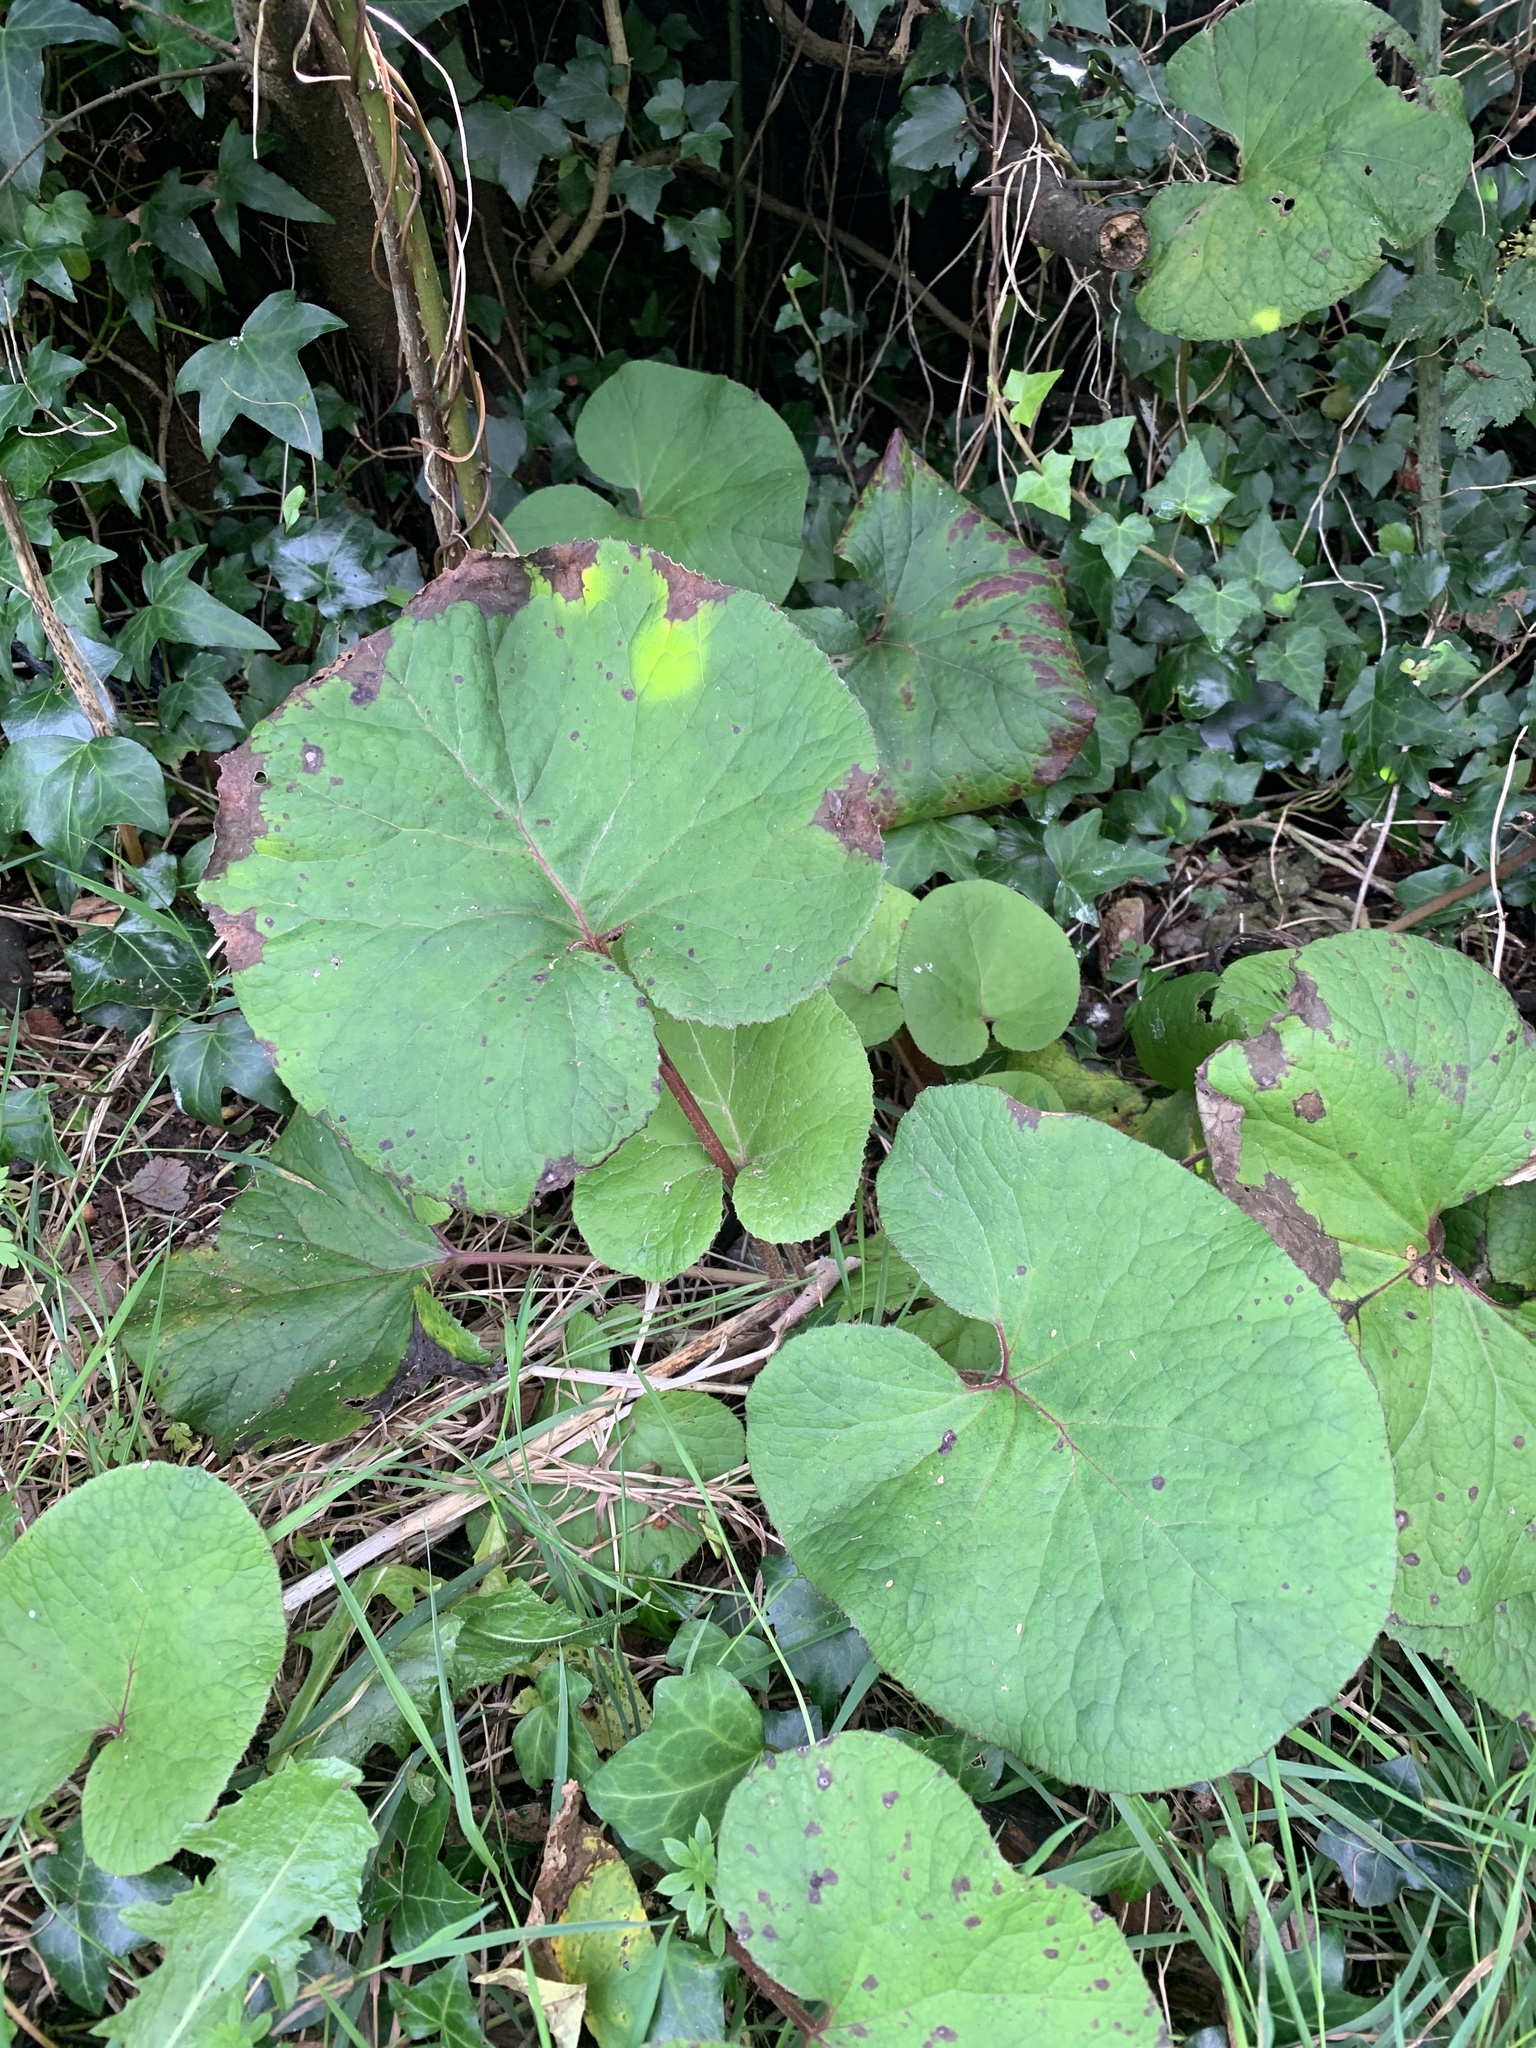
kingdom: Plantae
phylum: Tracheophyta
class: Magnoliopsida
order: Asterales
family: Asteraceae
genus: Petasites
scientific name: Petasites pyrenaicus
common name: Winter heliotrope
